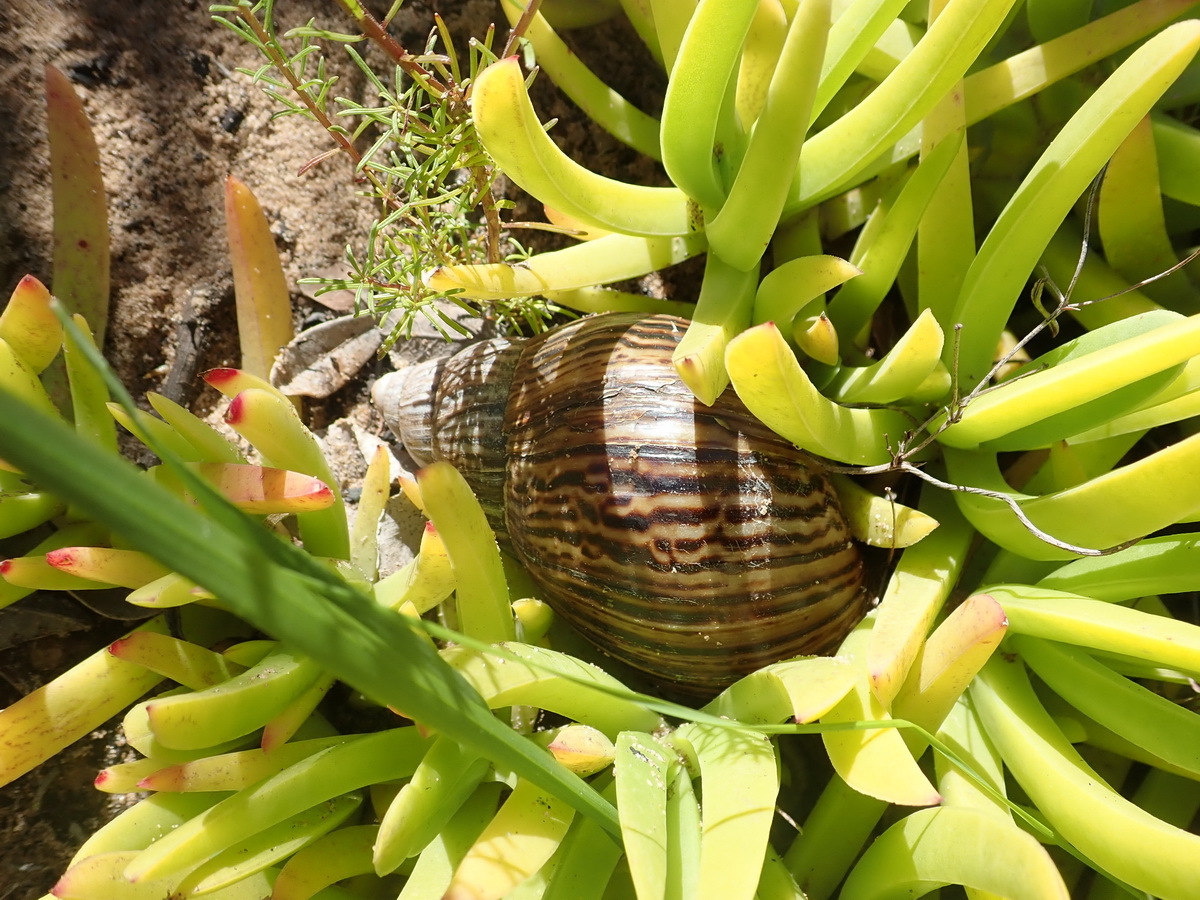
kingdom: Animalia
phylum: Mollusca
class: Gastropoda
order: Stylommatophora
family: Achatinidae
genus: Cochlitoma
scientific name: Cochlitoma zebra
